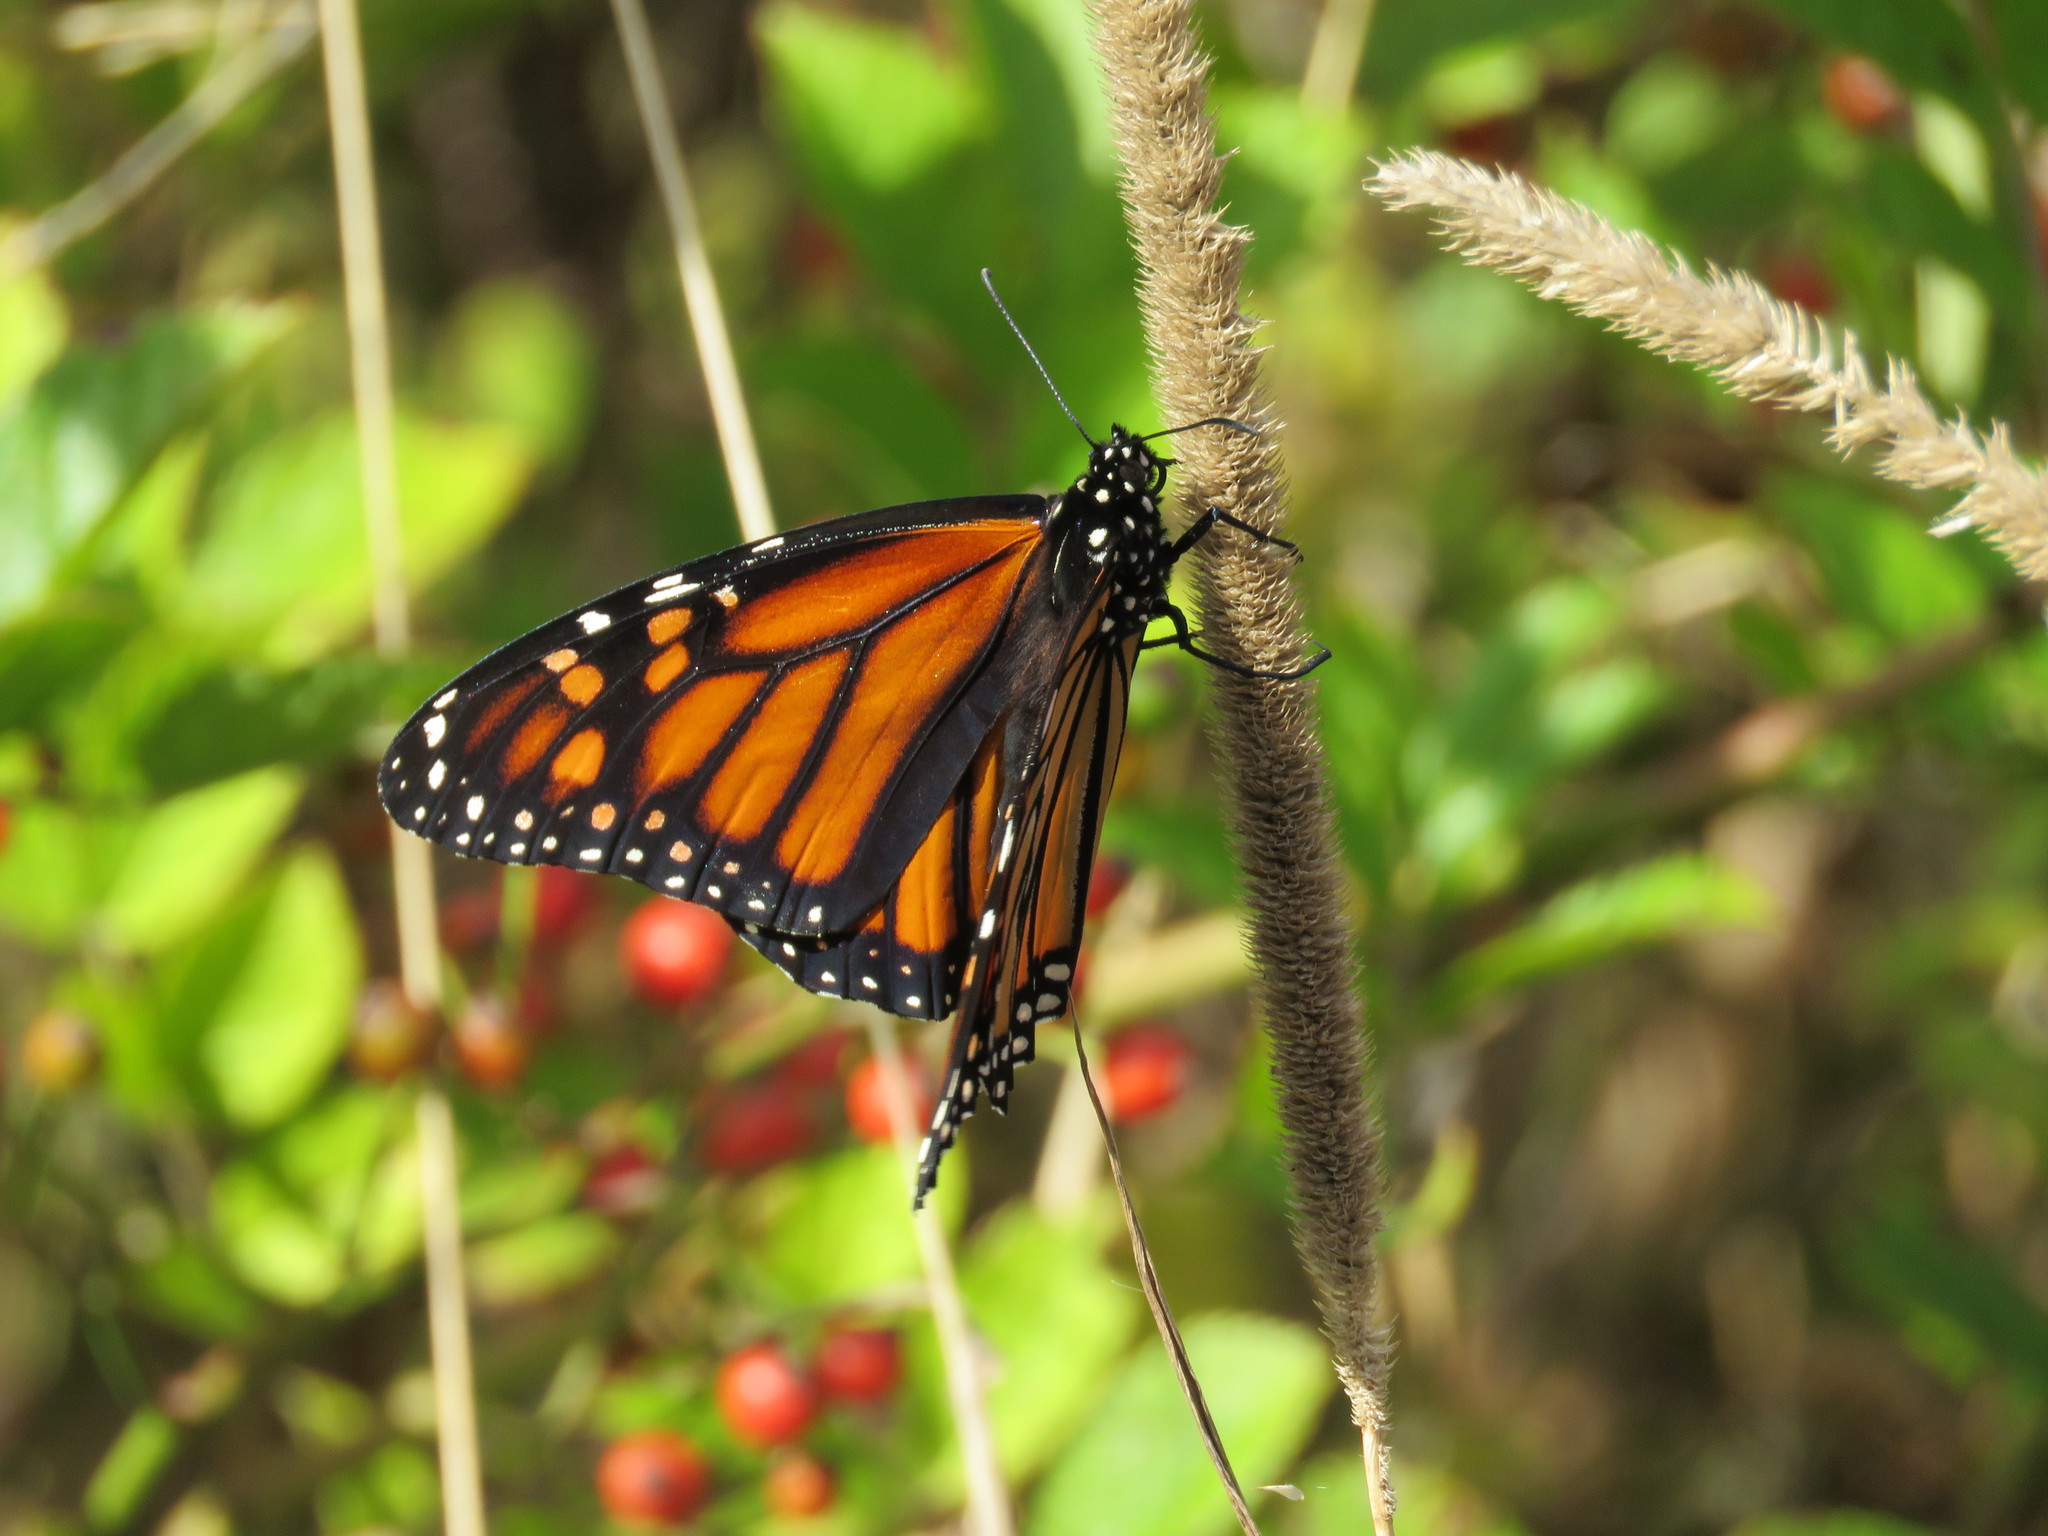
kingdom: Animalia
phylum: Arthropoda
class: Insecta
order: Lepidoptera
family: Nymphalidae
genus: Danaus
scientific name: Danaus plexippus
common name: Monarch
